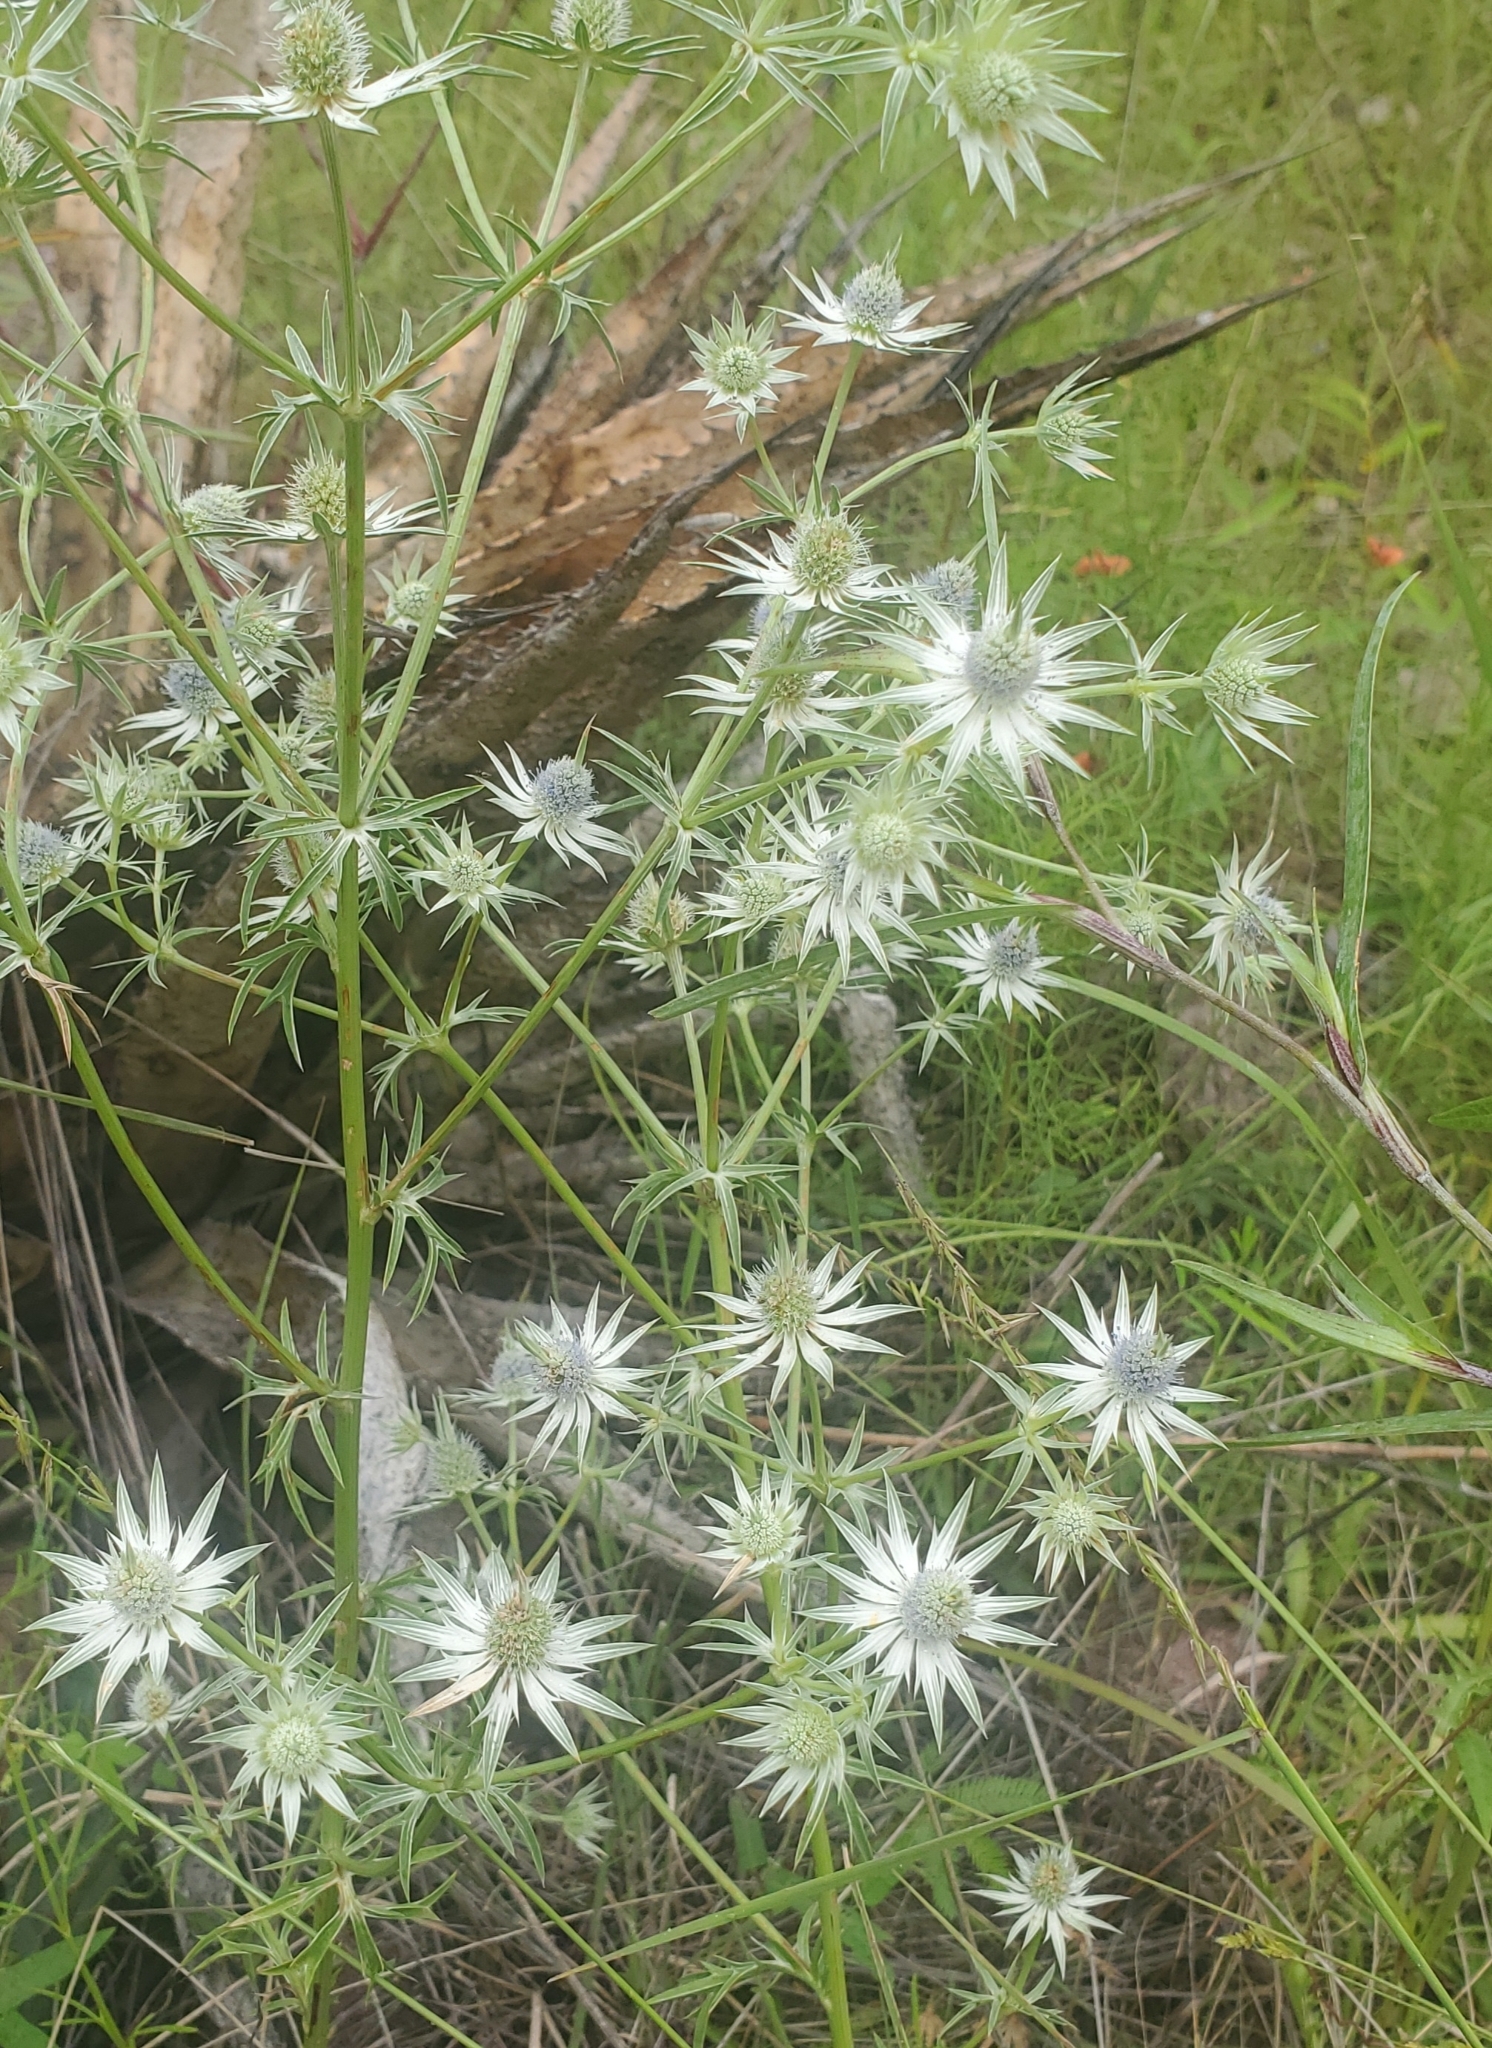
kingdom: Plantae
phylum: Tracheophyta
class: Magnoliopsida
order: Apiales
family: Apiaceae
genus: Eryngium
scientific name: Eryngium heterophyllum
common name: Mexican thistle
